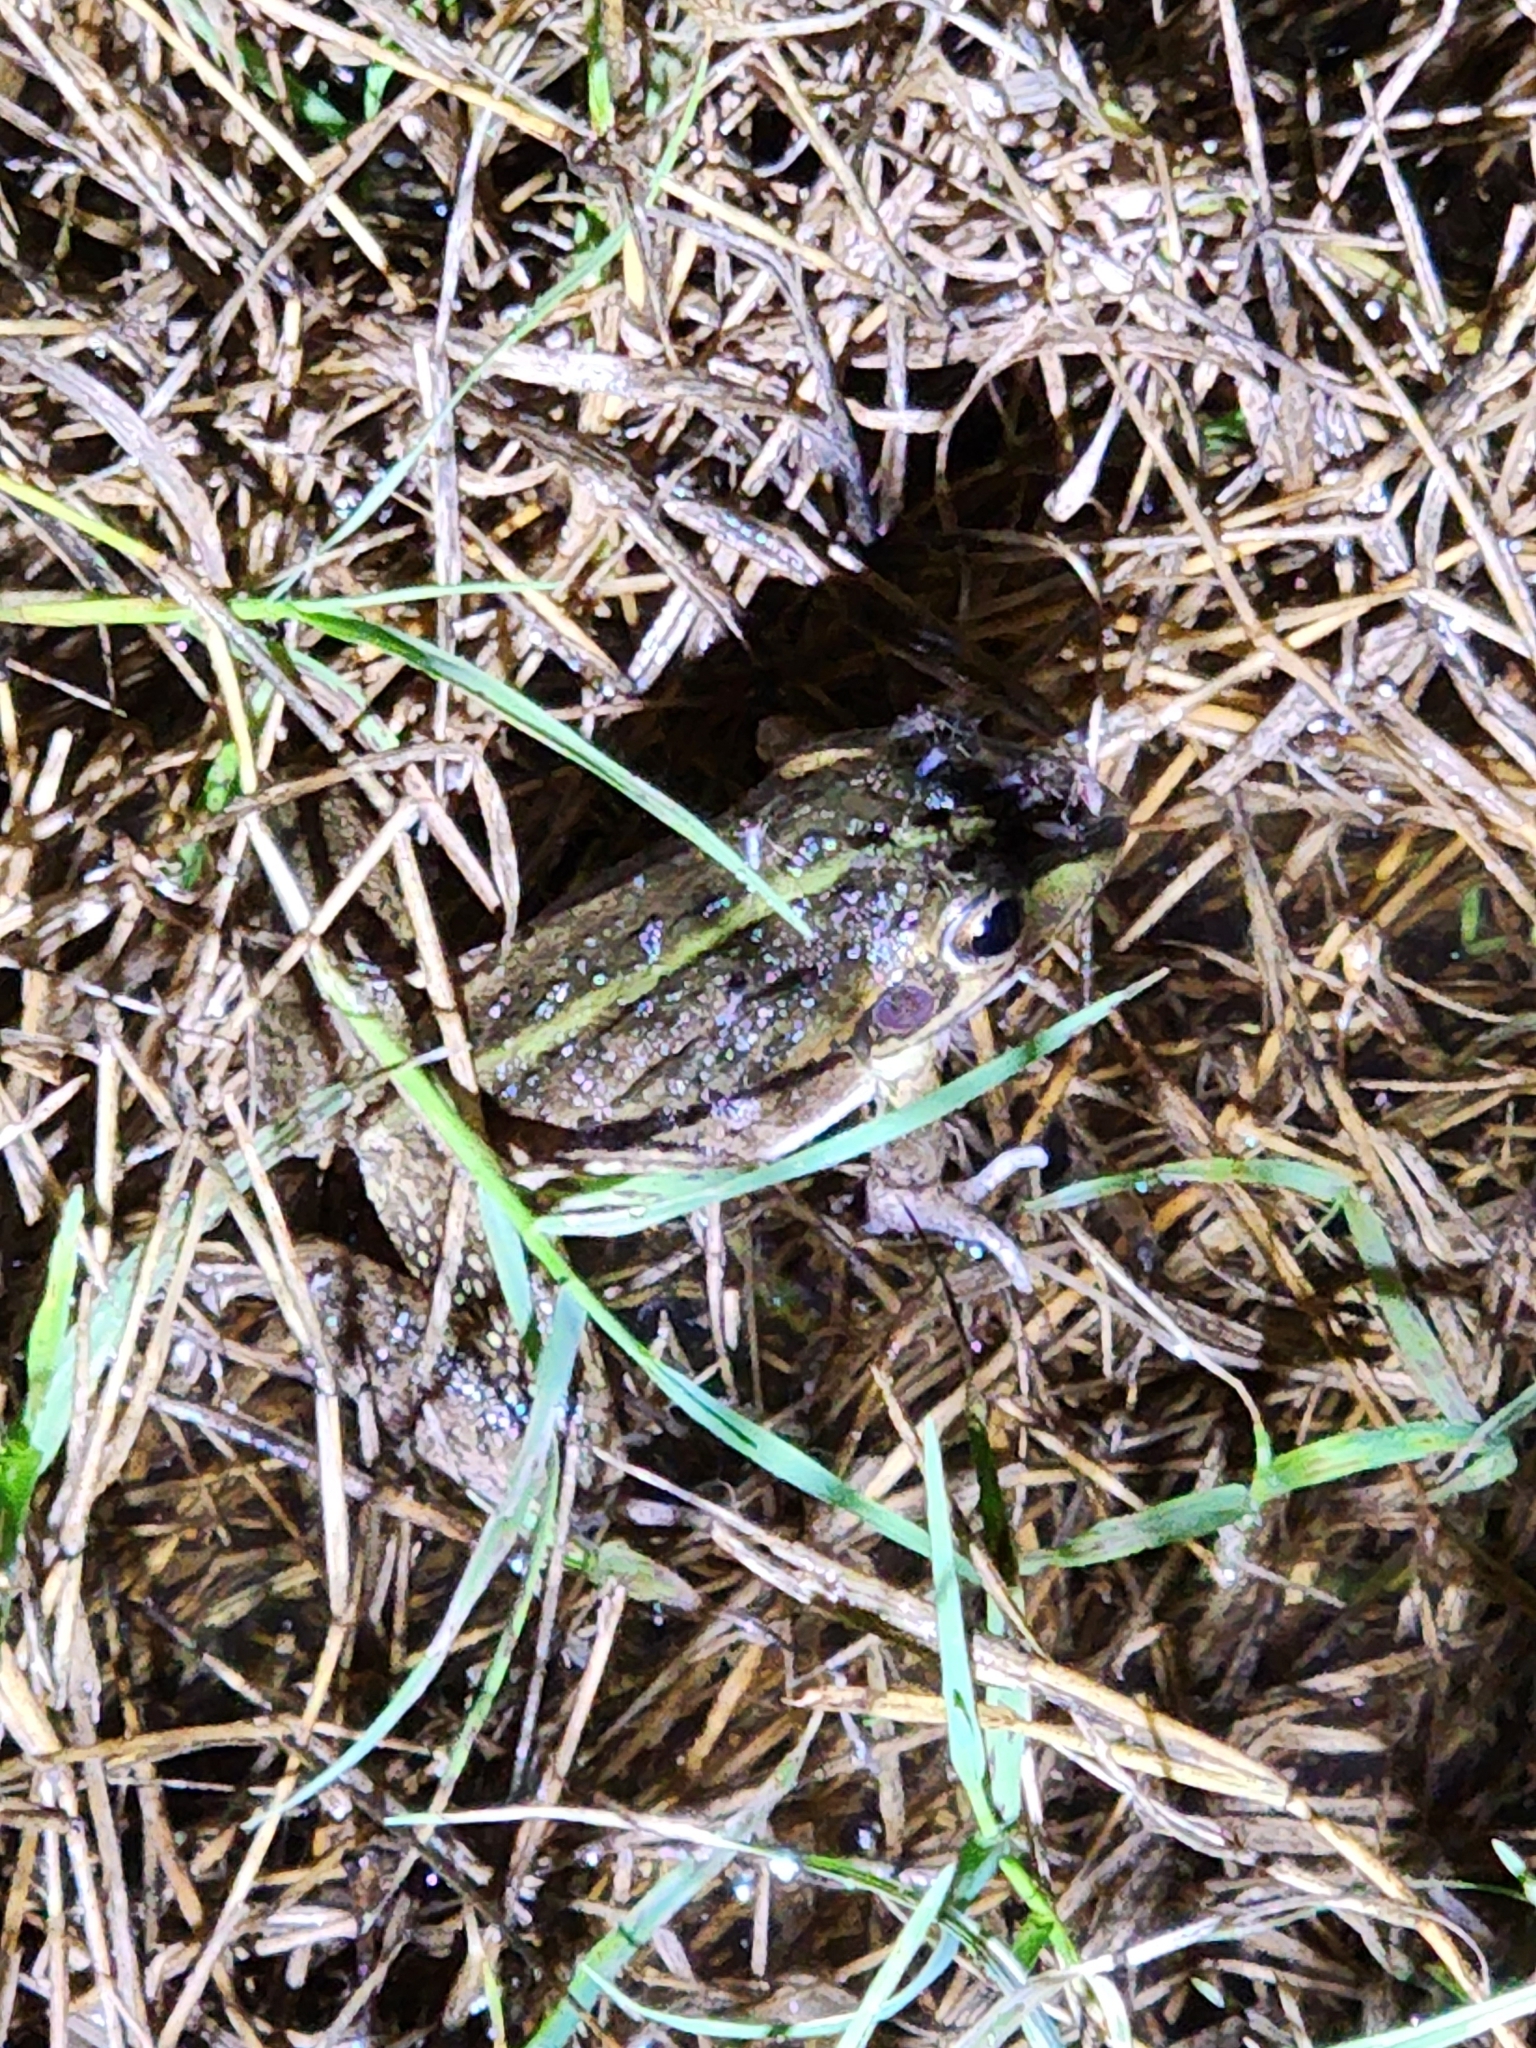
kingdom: Animalia
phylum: Chordata
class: Amphibia
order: Anura
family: Pelodryadidae
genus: Ranoidea
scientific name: Ranoidea alboguttata
